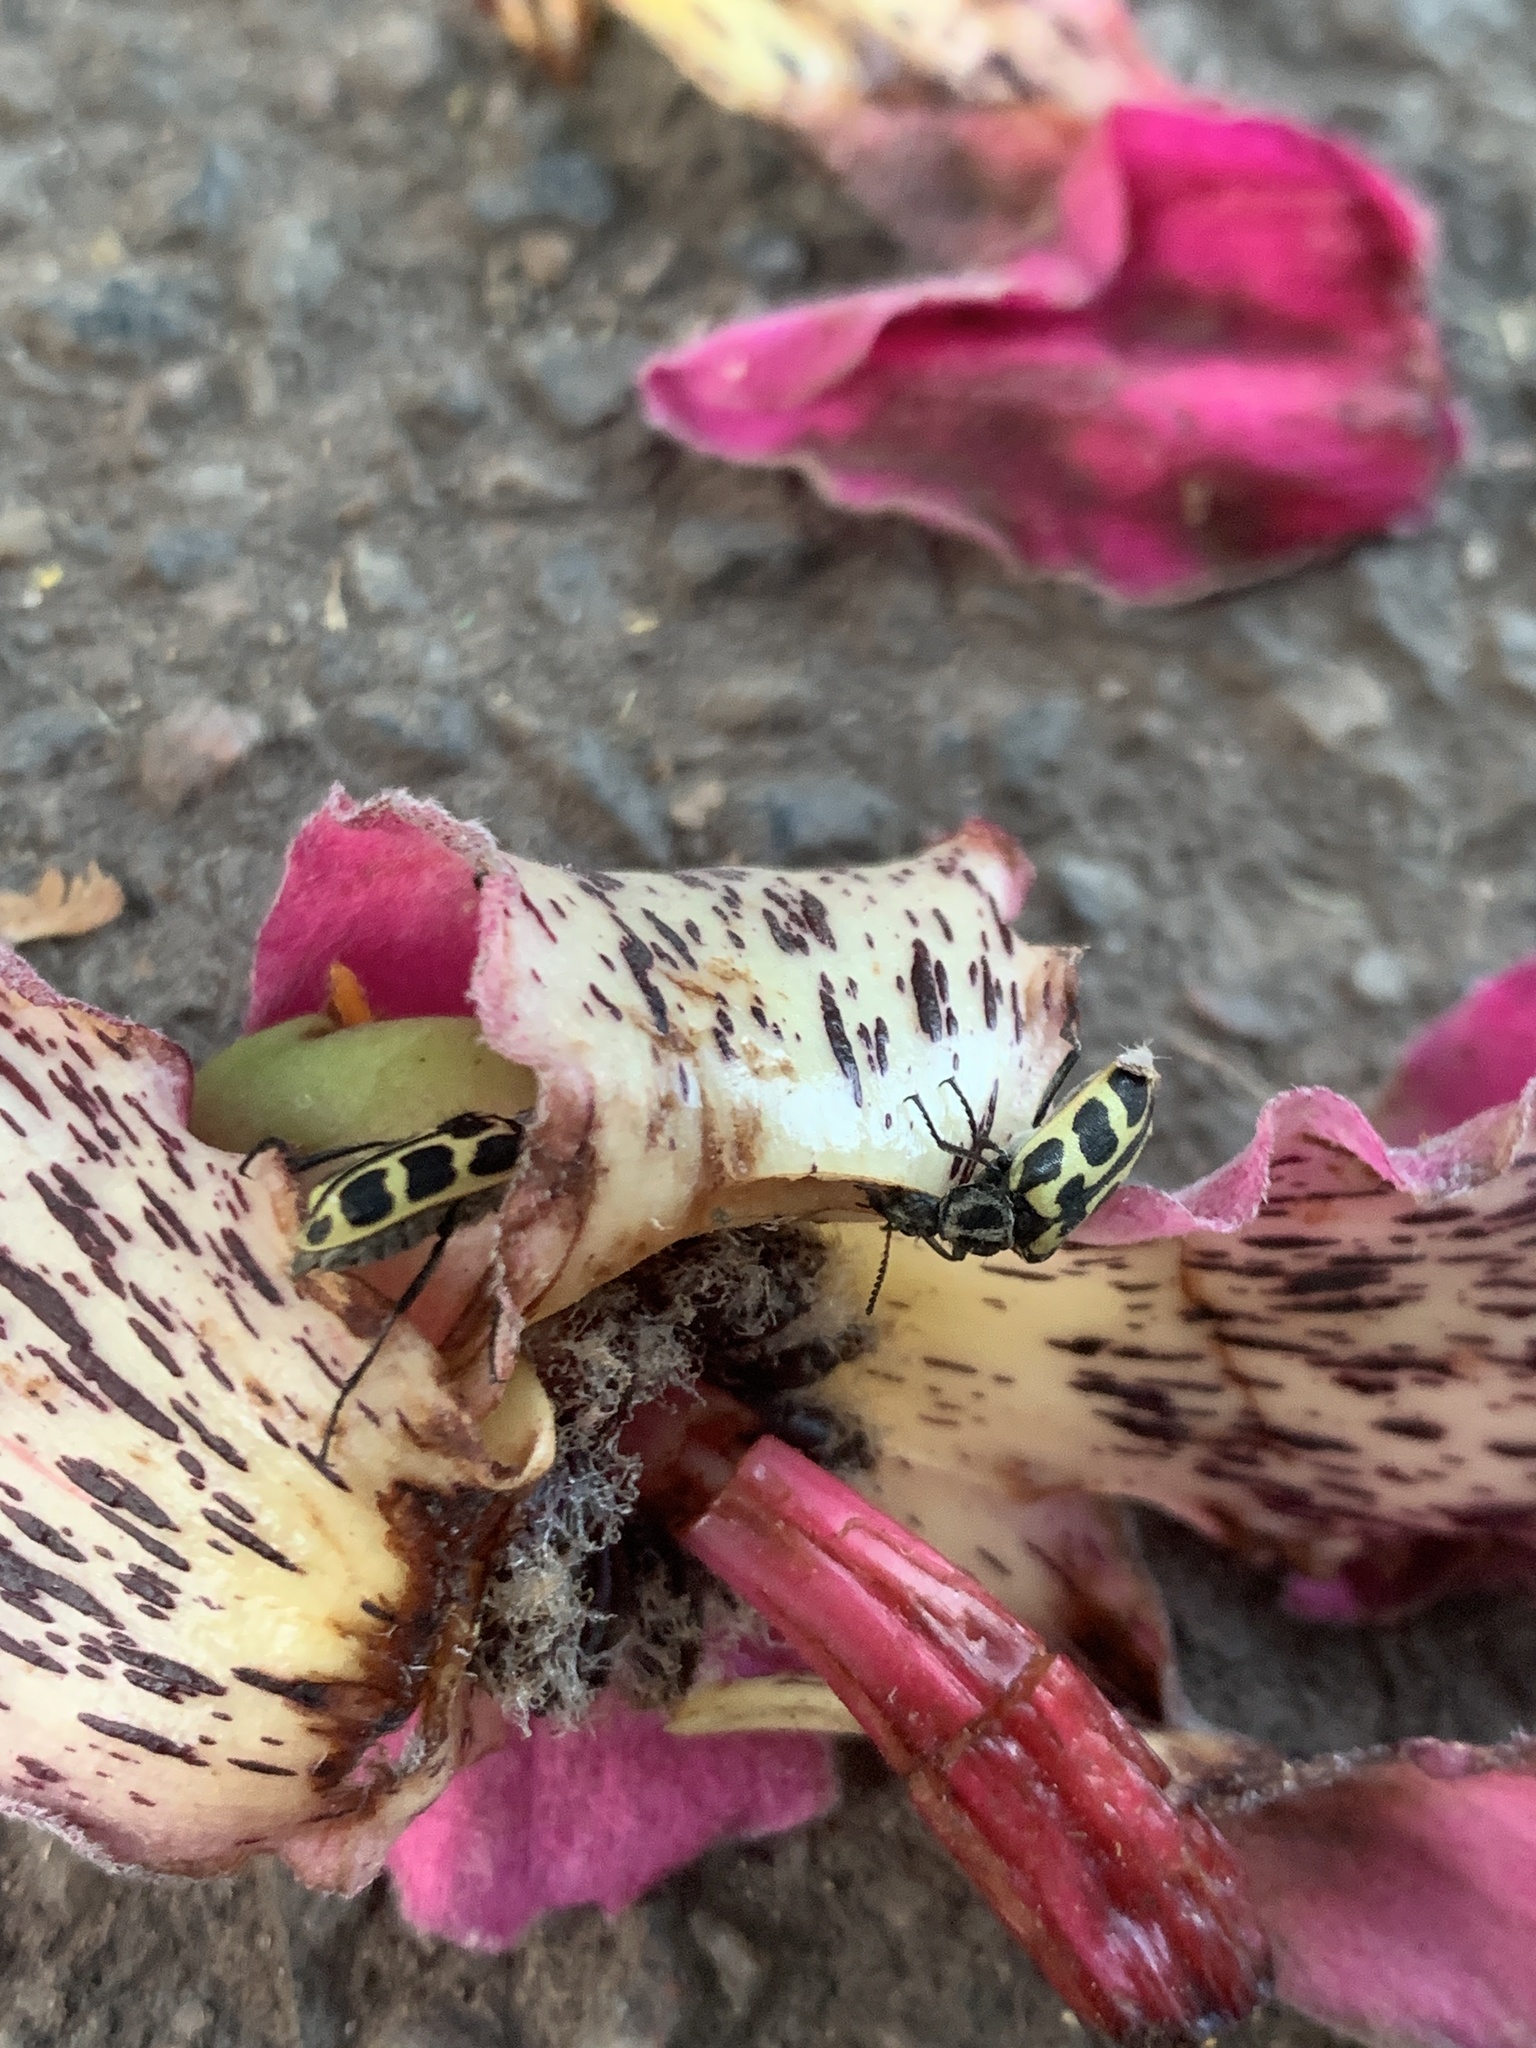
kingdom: Animalia
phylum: Arthropoda
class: Insecta
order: Coleoptera
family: Melyridae
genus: Astylus
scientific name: Astylus atromaculatus
